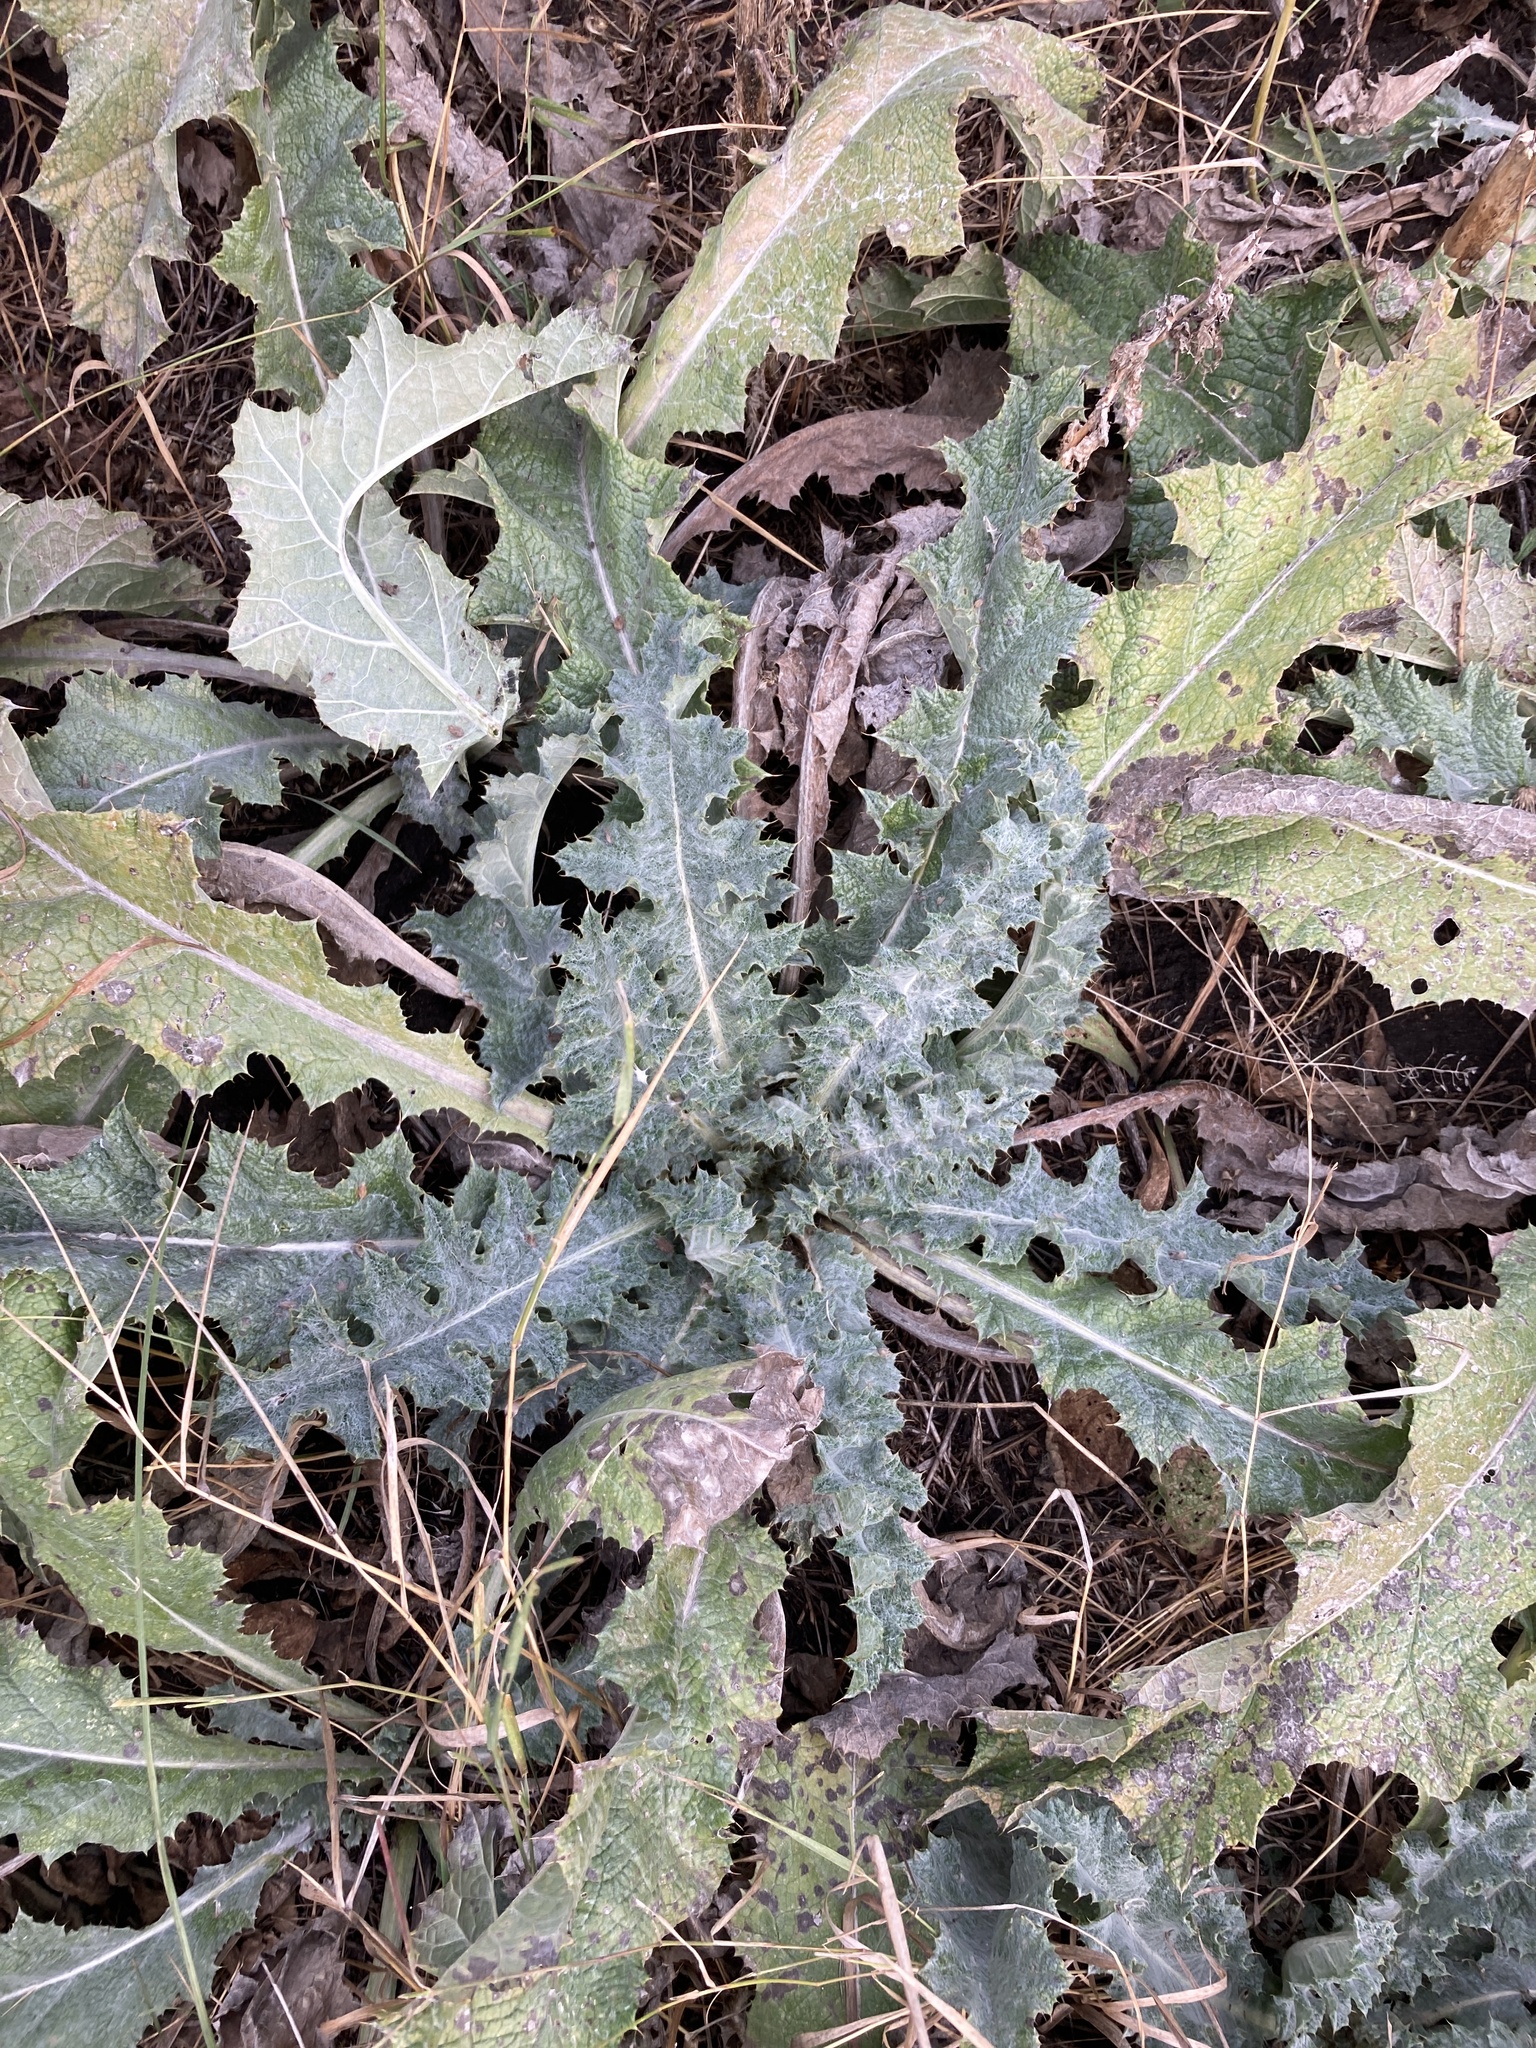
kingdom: Plantae
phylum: Tracheophyta
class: Magnoliopsida
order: Asterales
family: Asteraceae
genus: Onopordum
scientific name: Onopordum acanthium
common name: Scotch thistle
